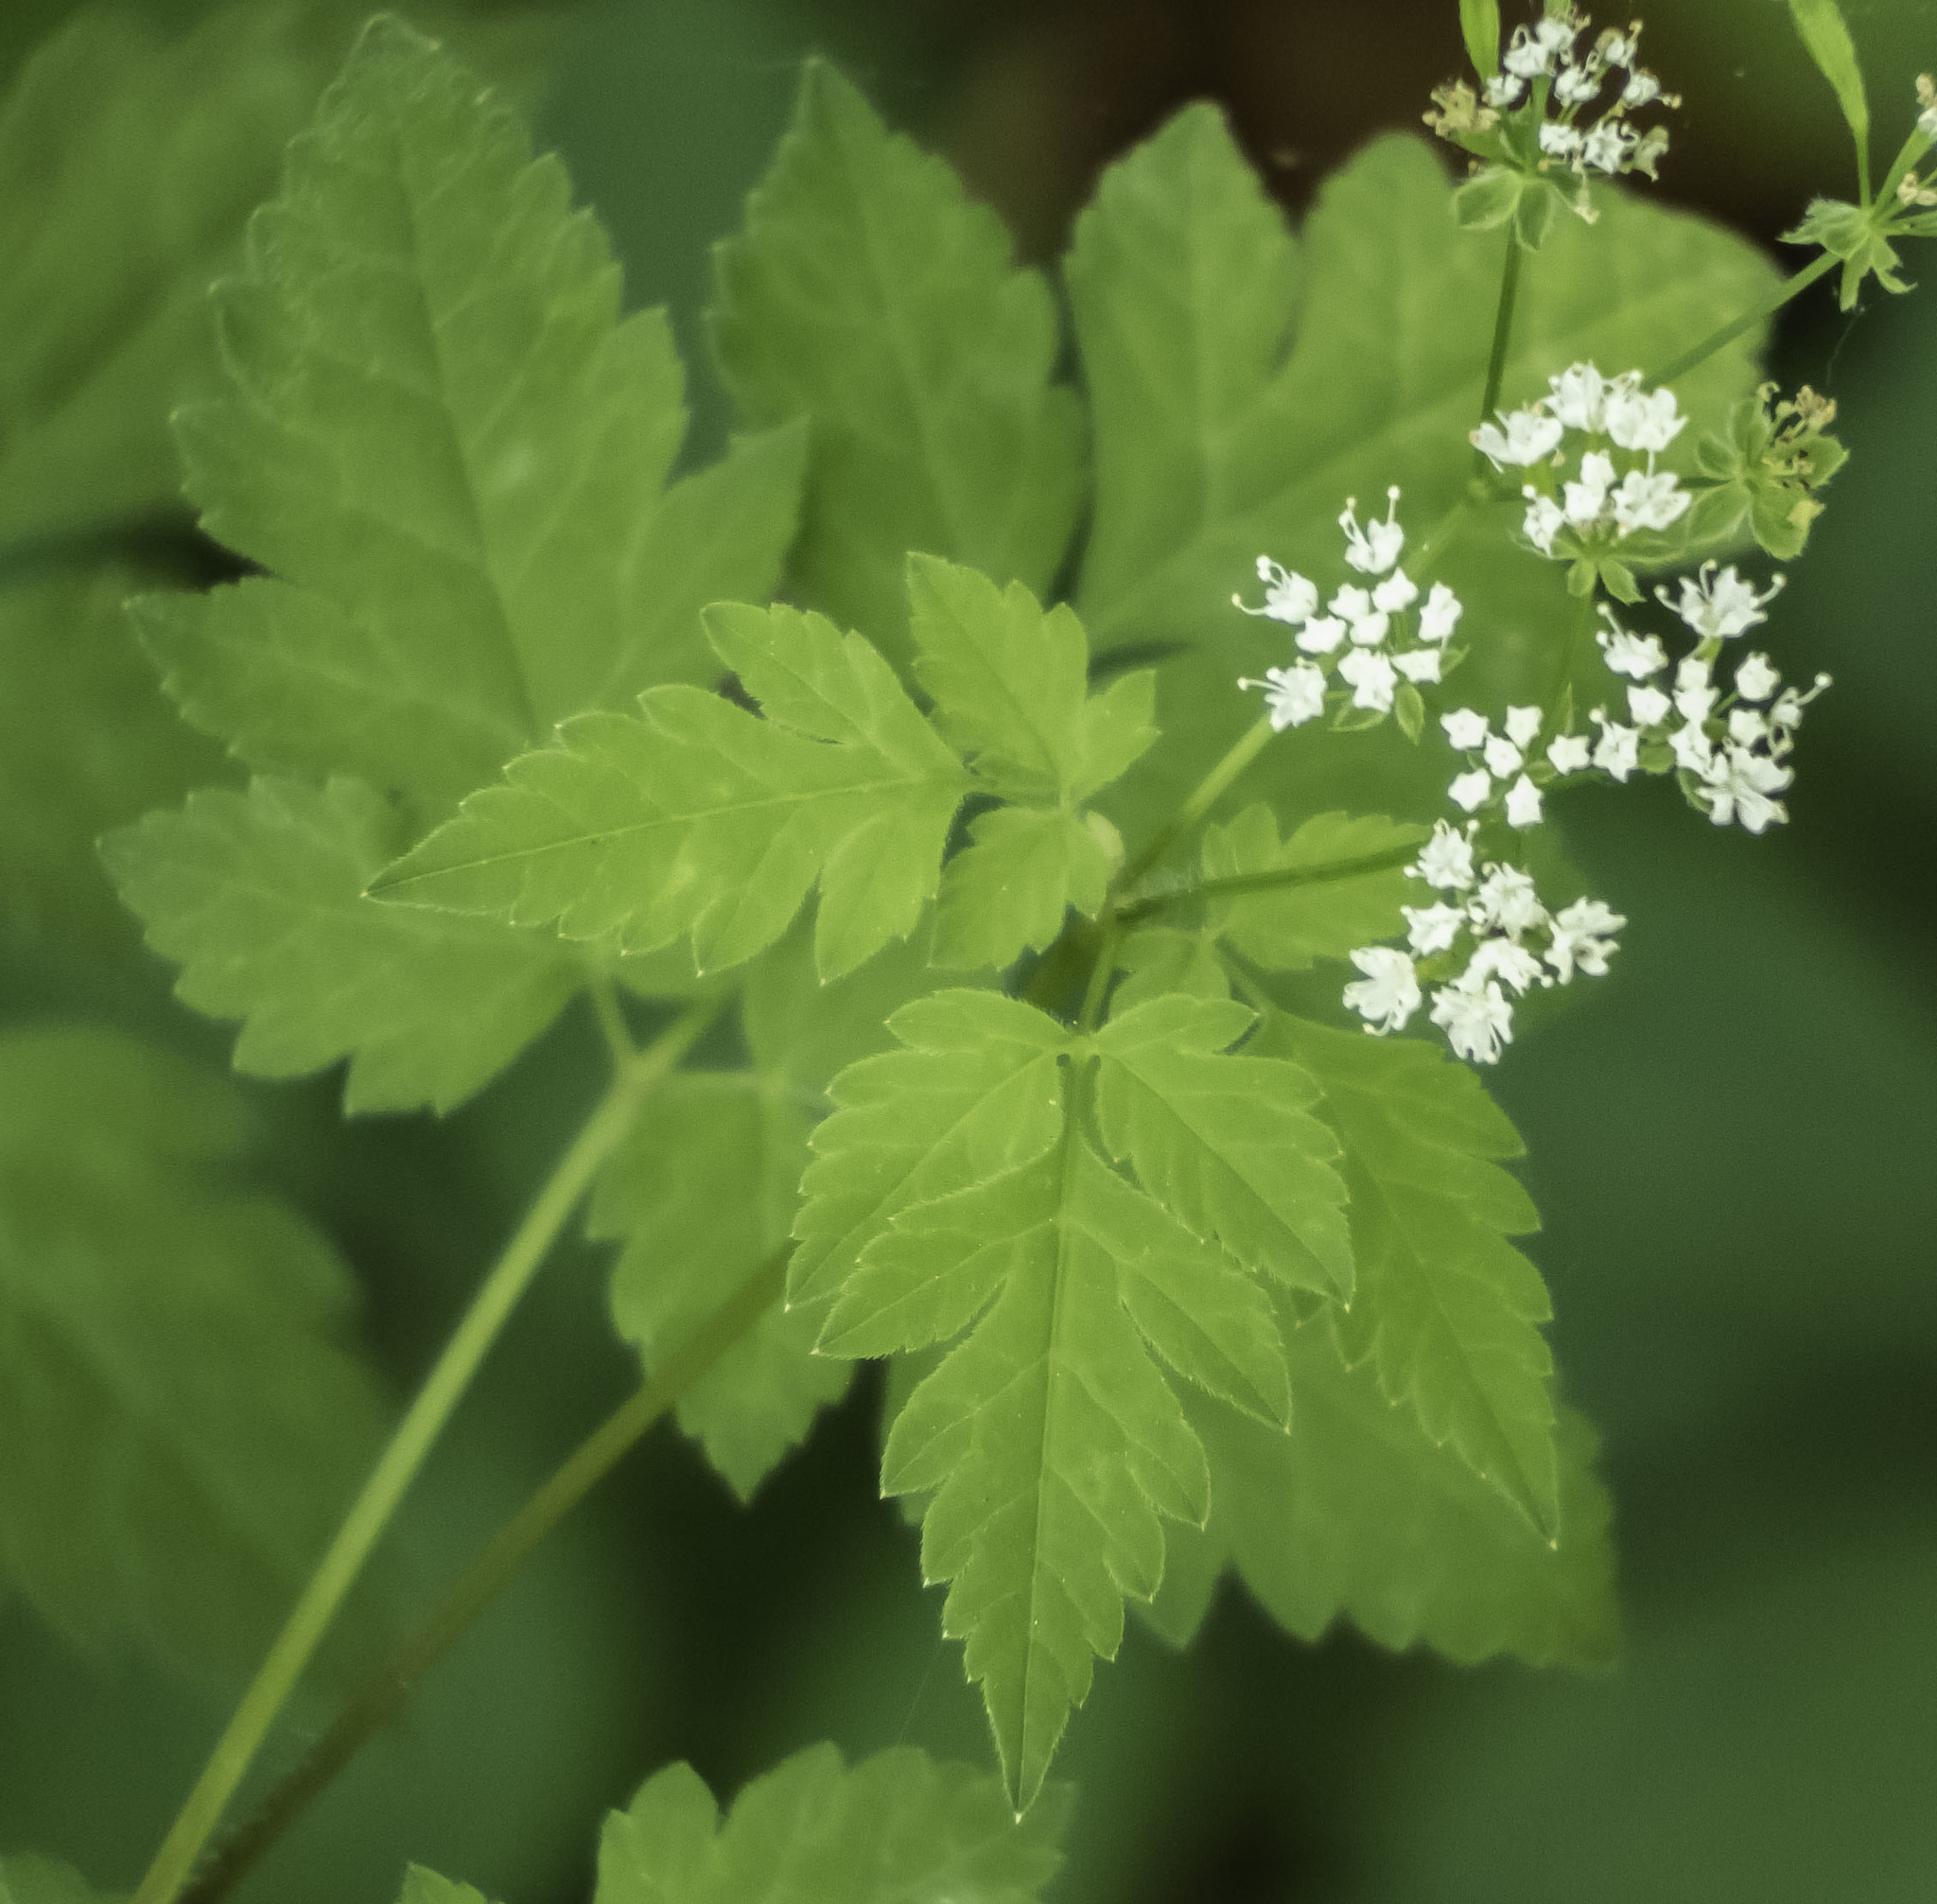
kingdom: Plantae
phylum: Tracheophyta
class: Magnoliopsida
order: Apiales
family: Apiaceae
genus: Osmorhiza
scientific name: Osmorhiza longistylis
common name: Smooth sweet cicely
